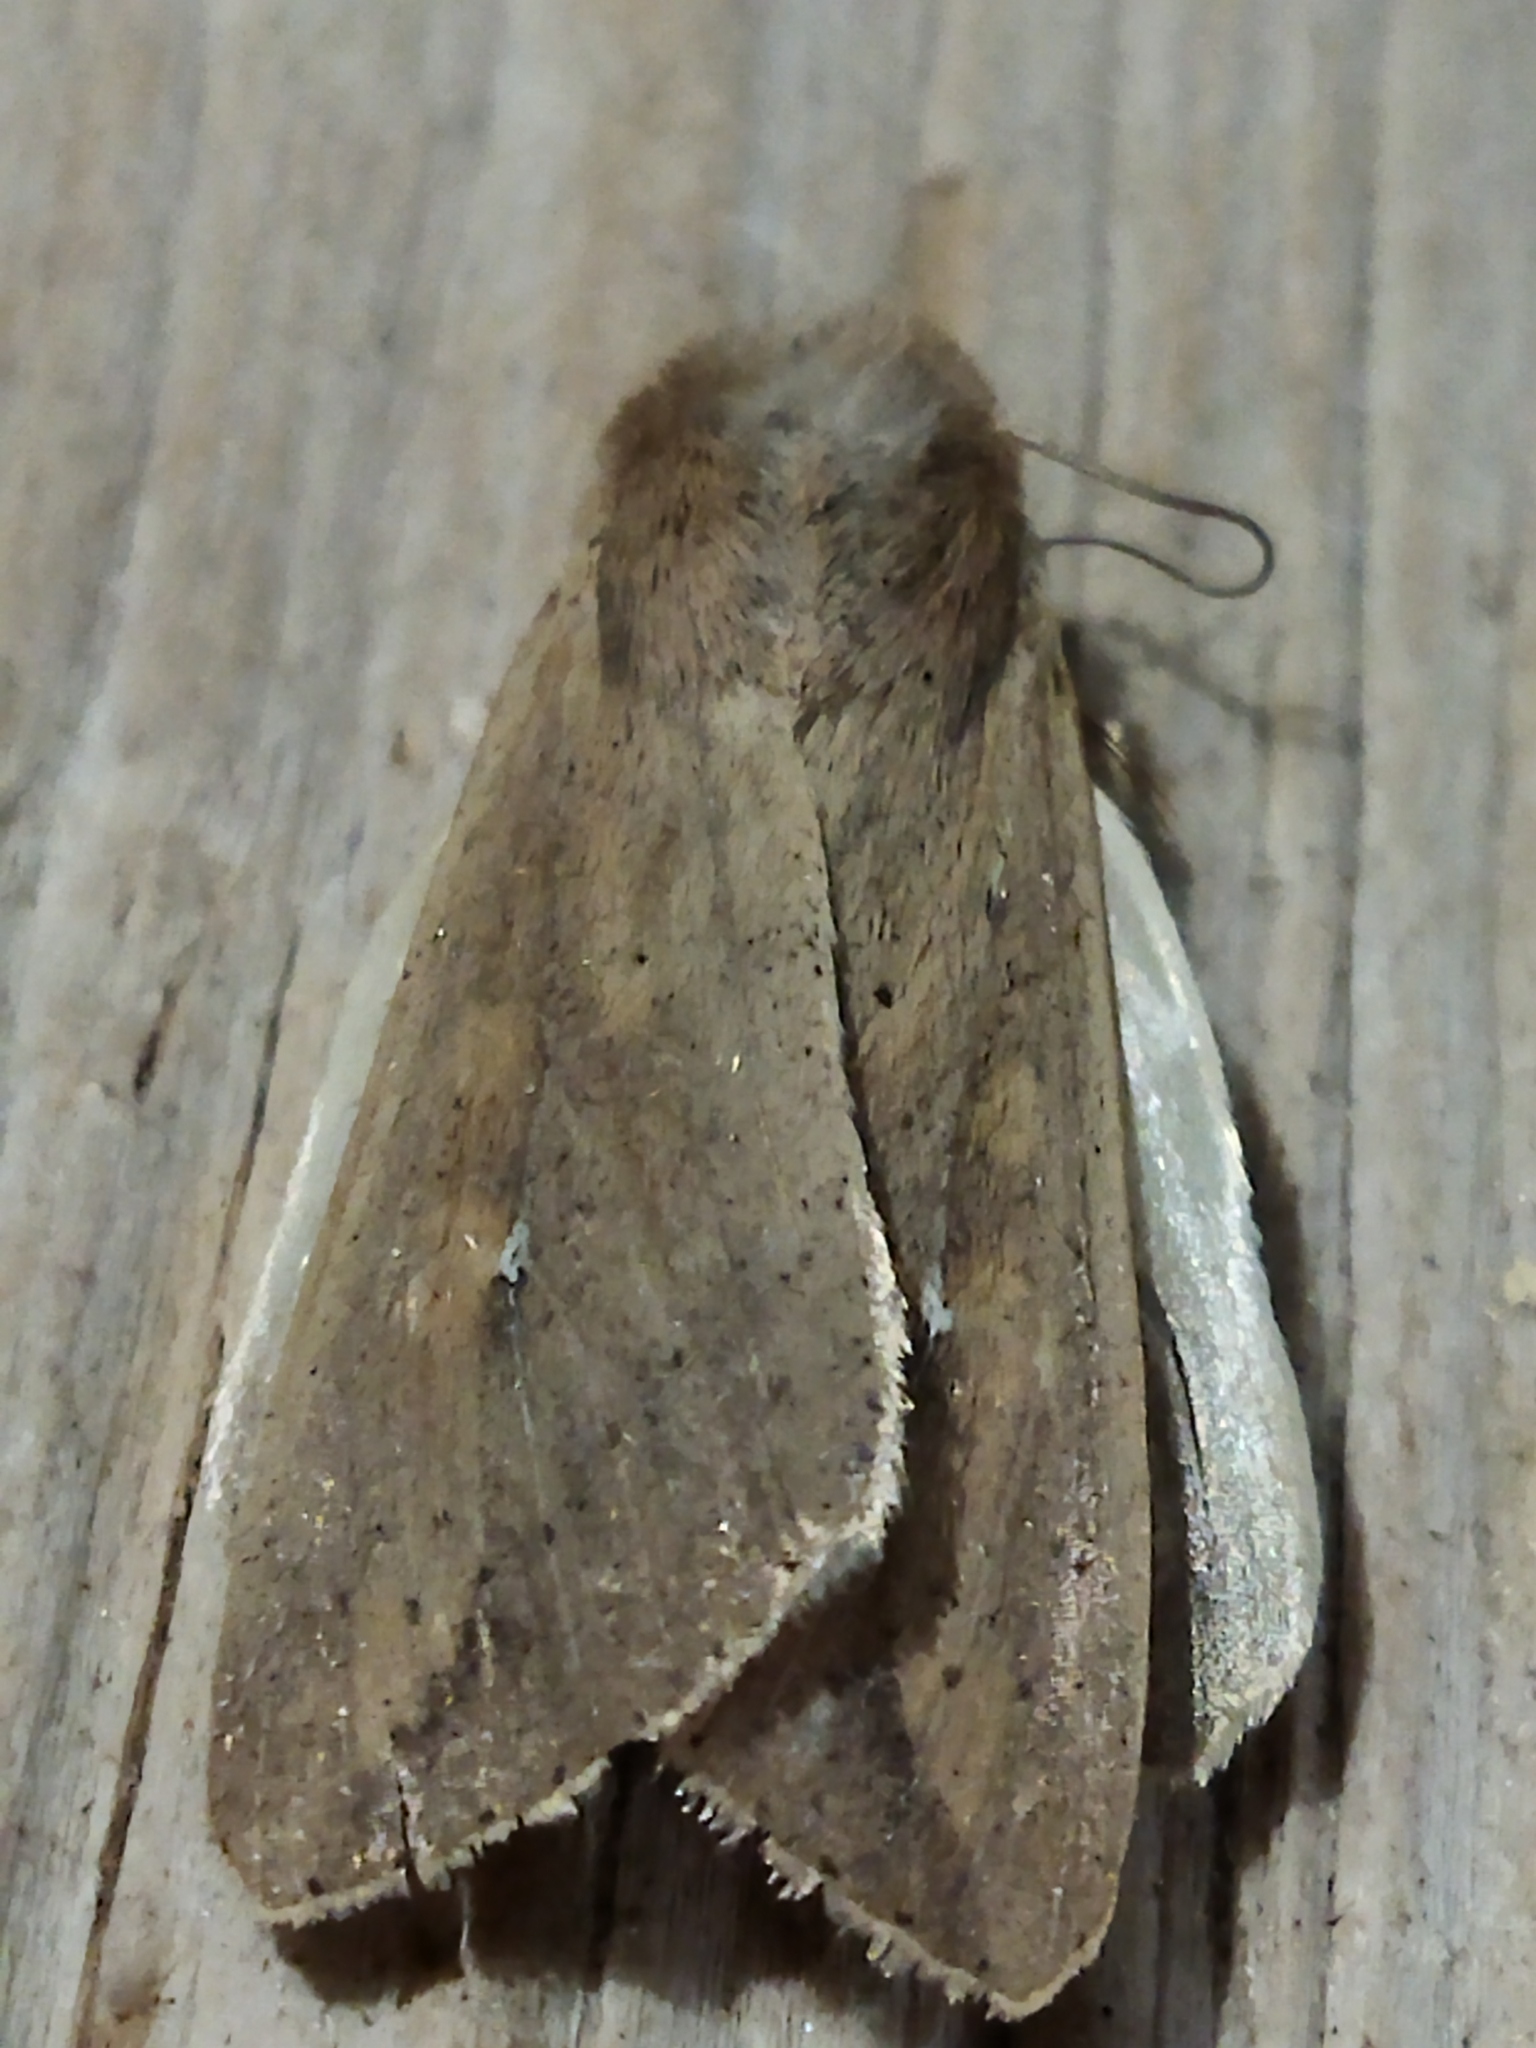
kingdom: Animalia
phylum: Arthropoda
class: Insecta
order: Lepidoptera
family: Noctuidae
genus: Mythimna
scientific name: Mythimna unipuncta
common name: White-speck
